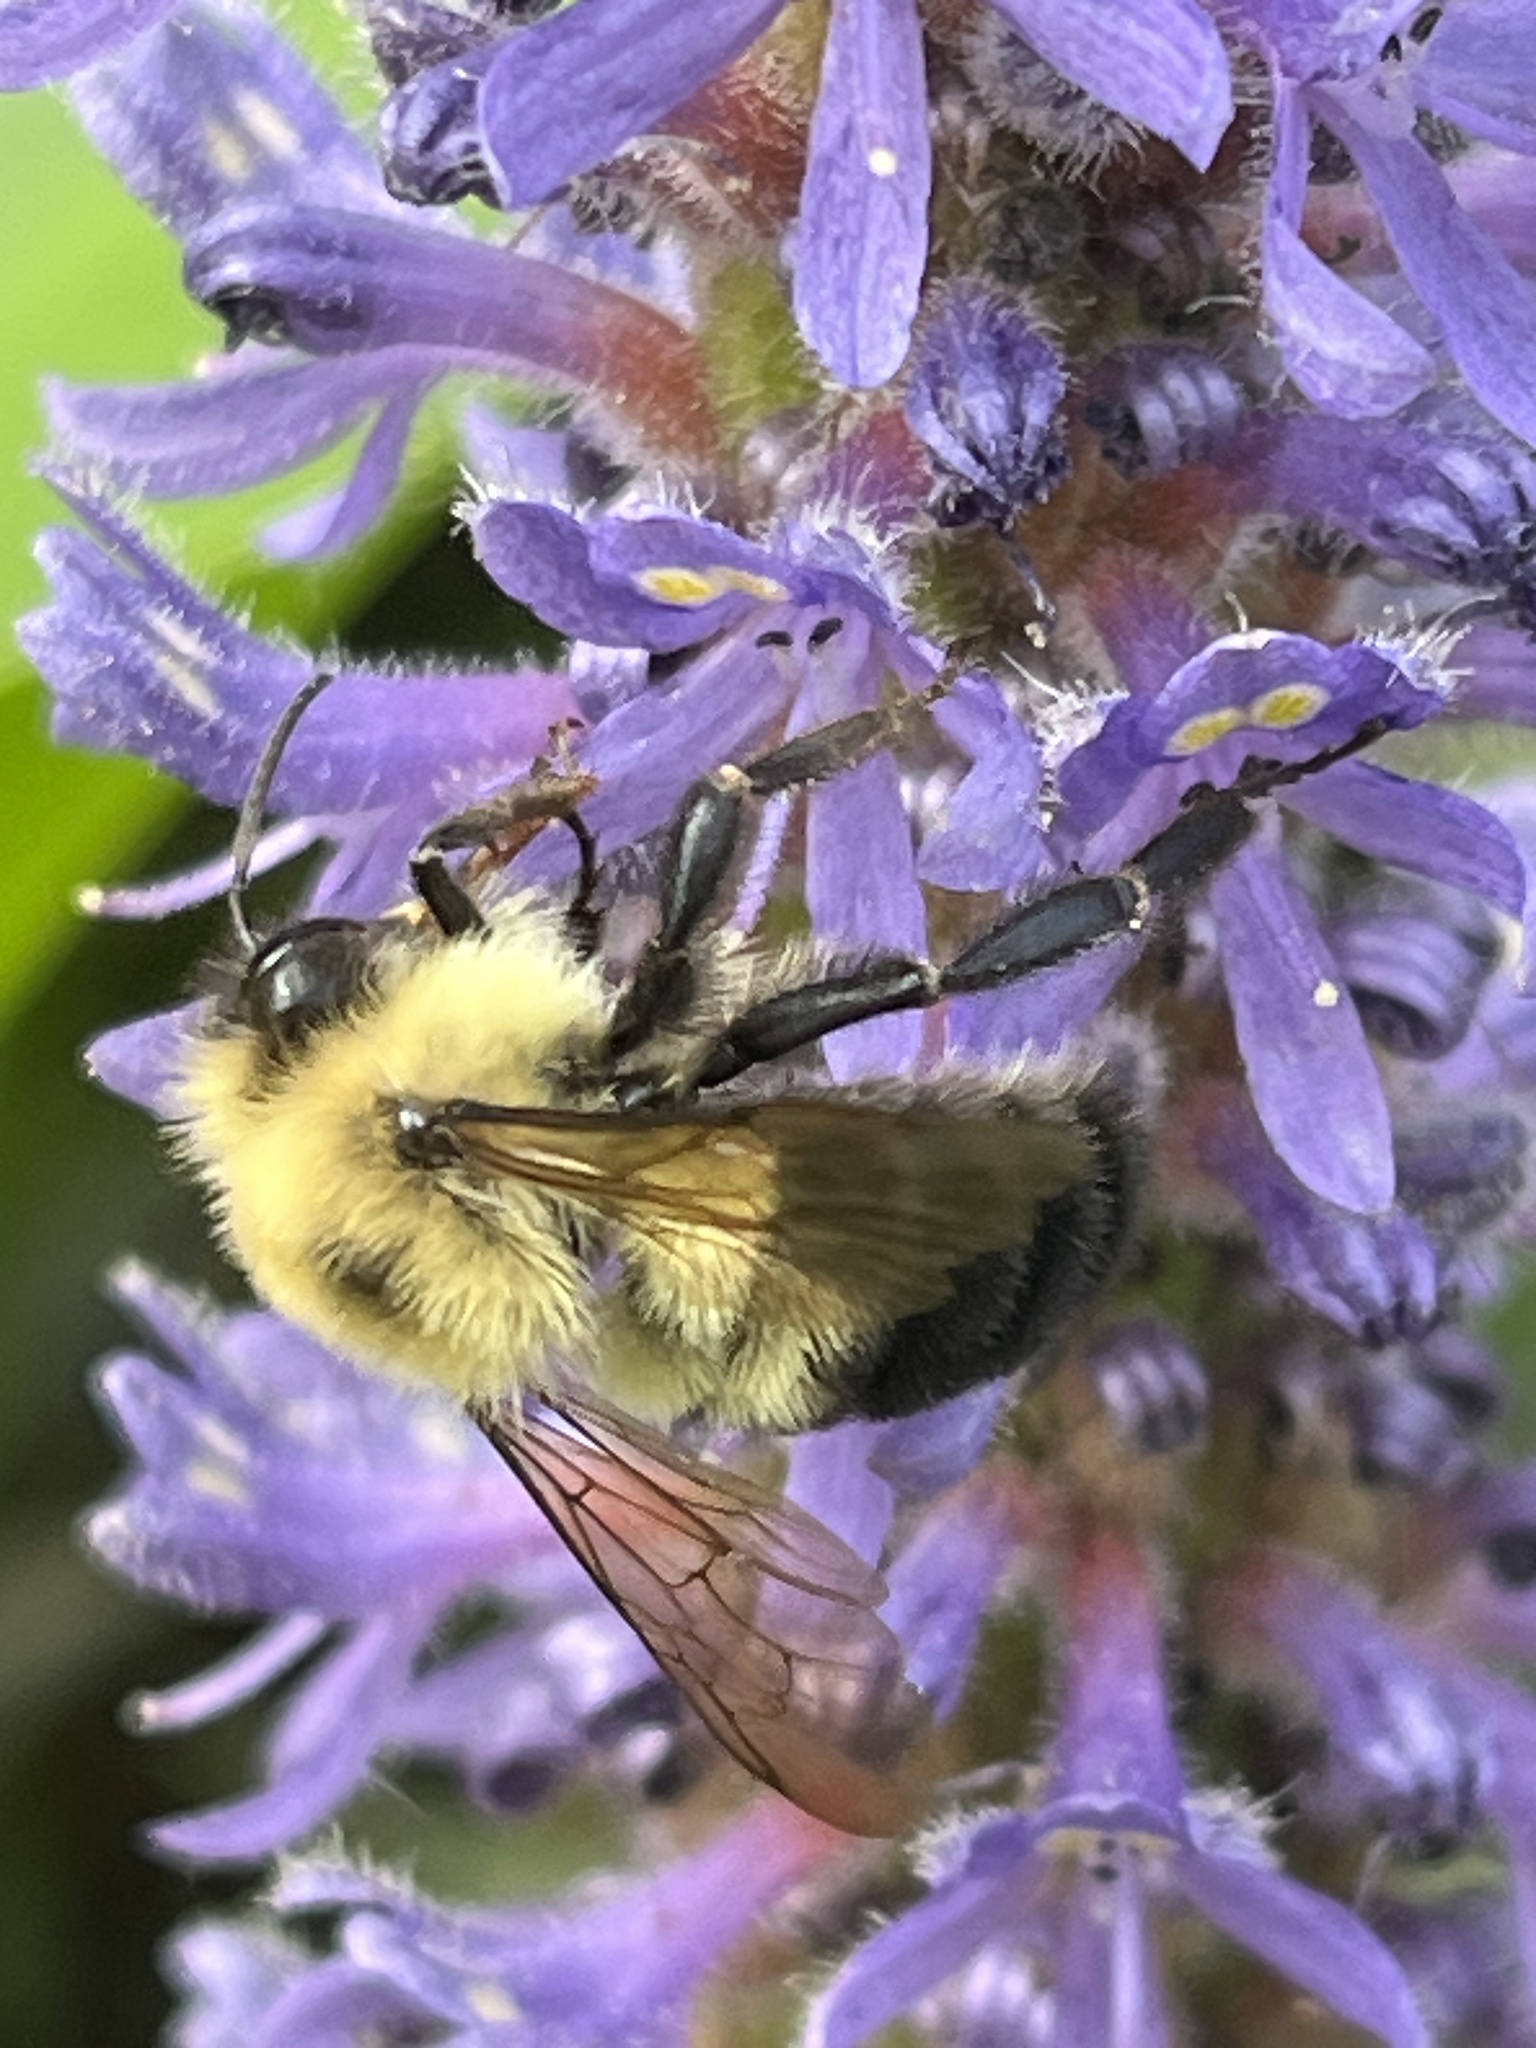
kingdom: Animalia
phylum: Arthropoda
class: Insecta
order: Hymenoptera
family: Apidae
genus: Bombus
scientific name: Bombus bimaculatus
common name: Two-spotted bumble bee
